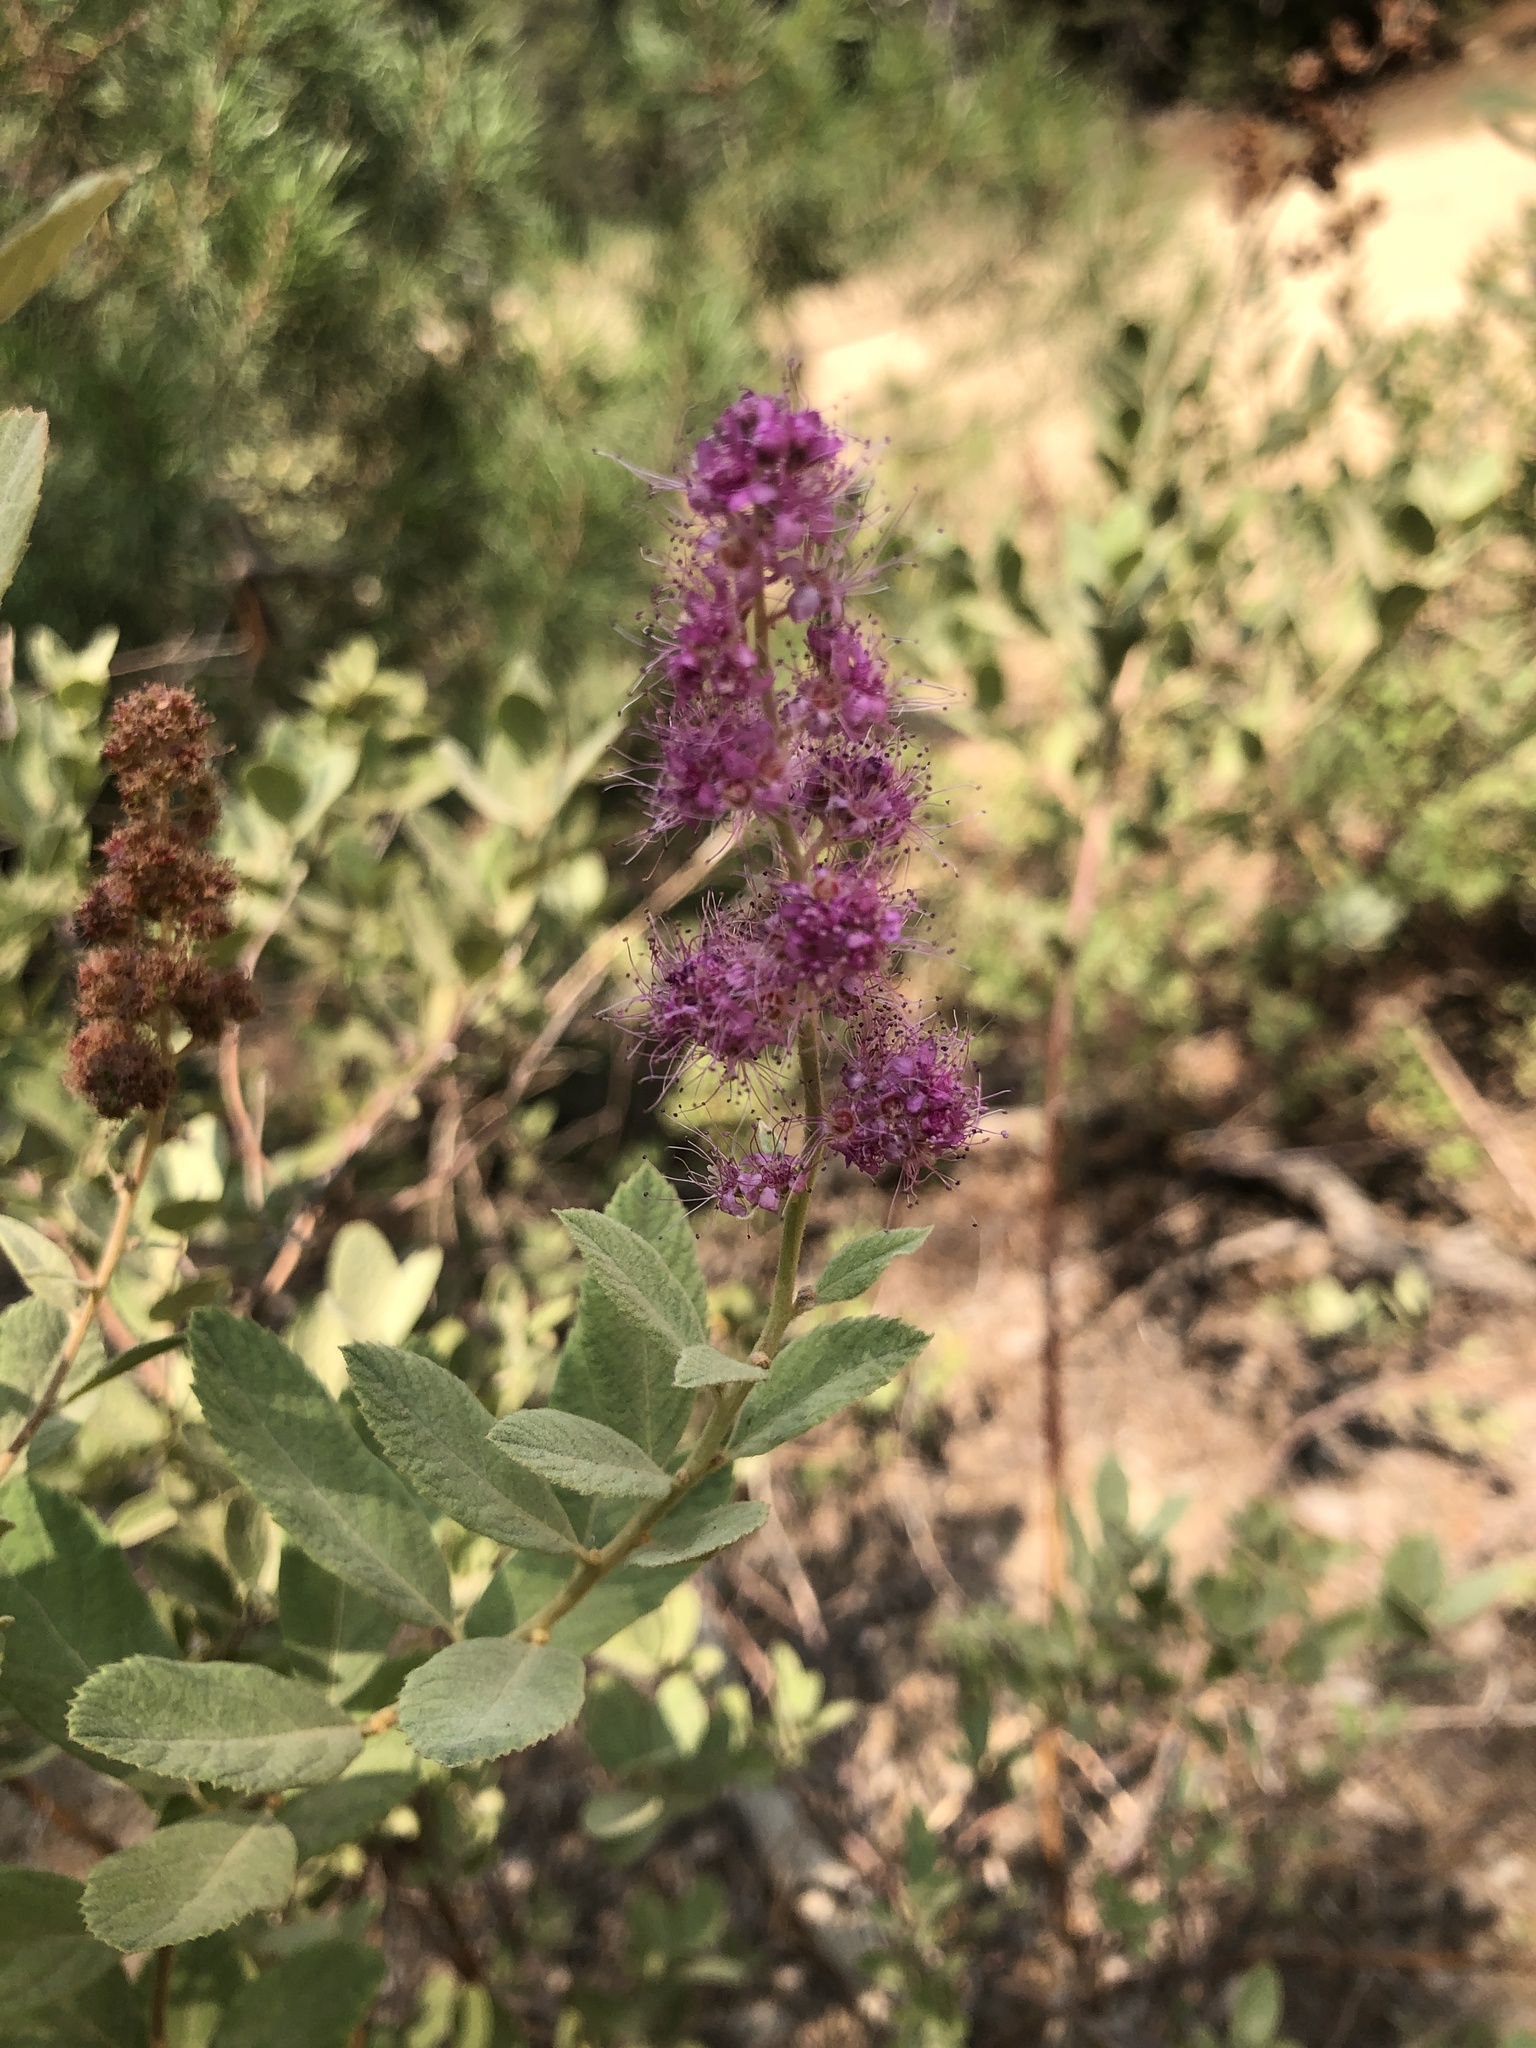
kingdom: Plantae
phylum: Tracheophyta
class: Magnoliopsida
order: Rosales
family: Rosaceae
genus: Spiraea
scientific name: Spiraea douglasii
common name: Steeplebush
